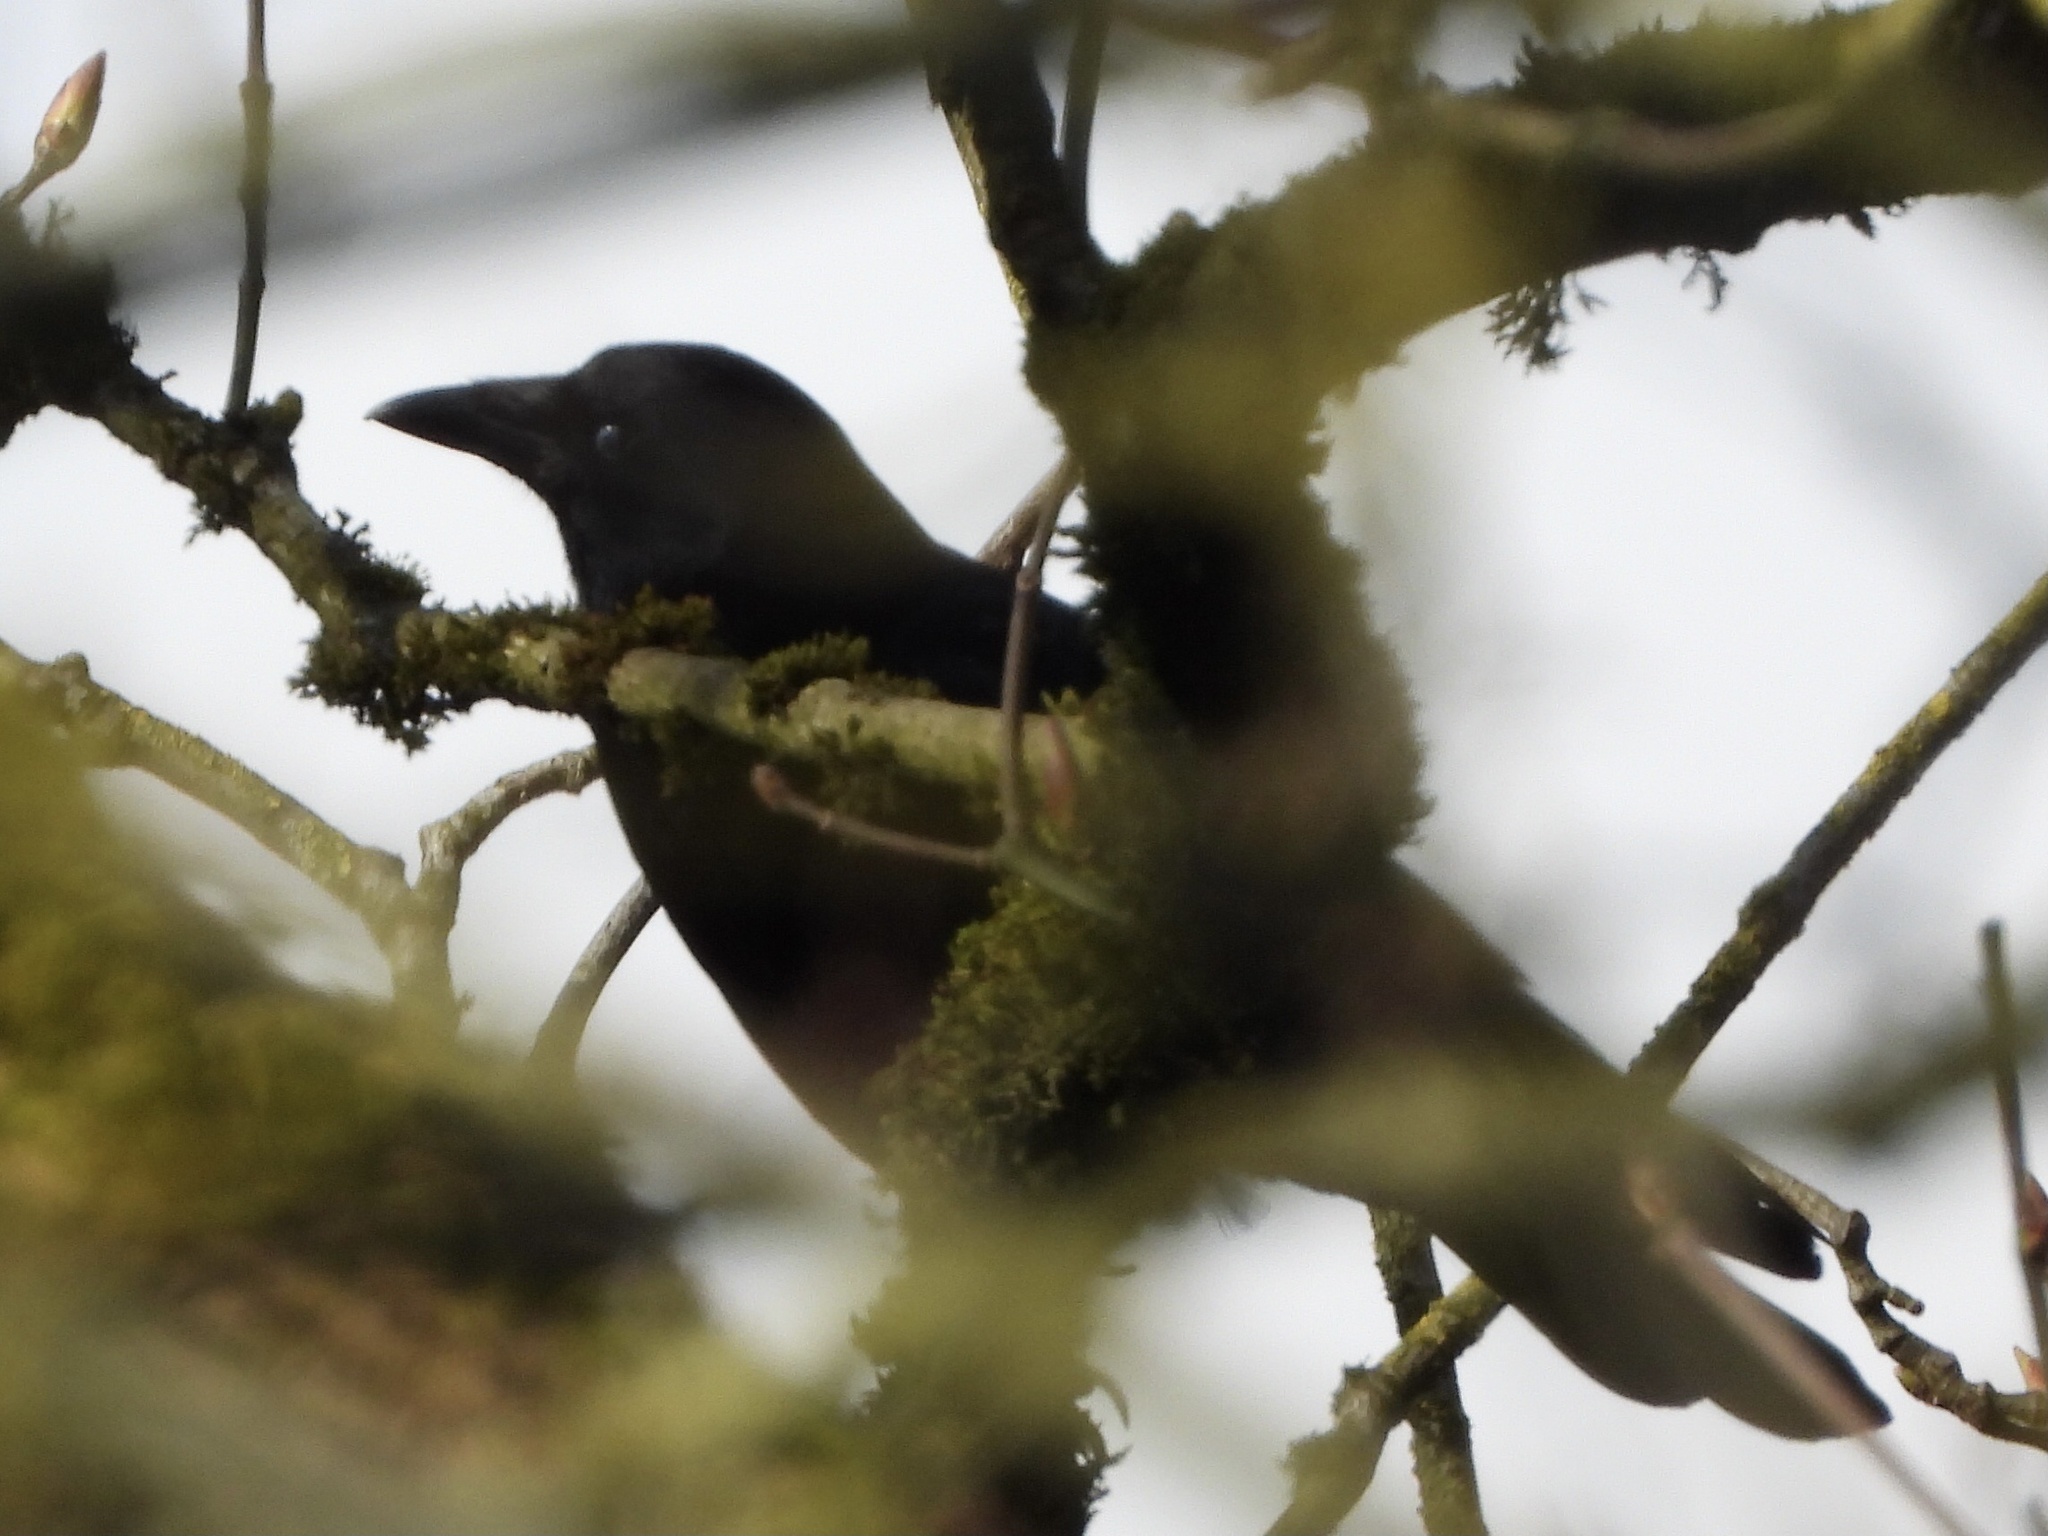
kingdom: Animalia
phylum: Chordata
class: Aves
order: Passeriformes
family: Corvidae
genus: Corvus
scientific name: Corvus brachyrhynchos
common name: American crow
